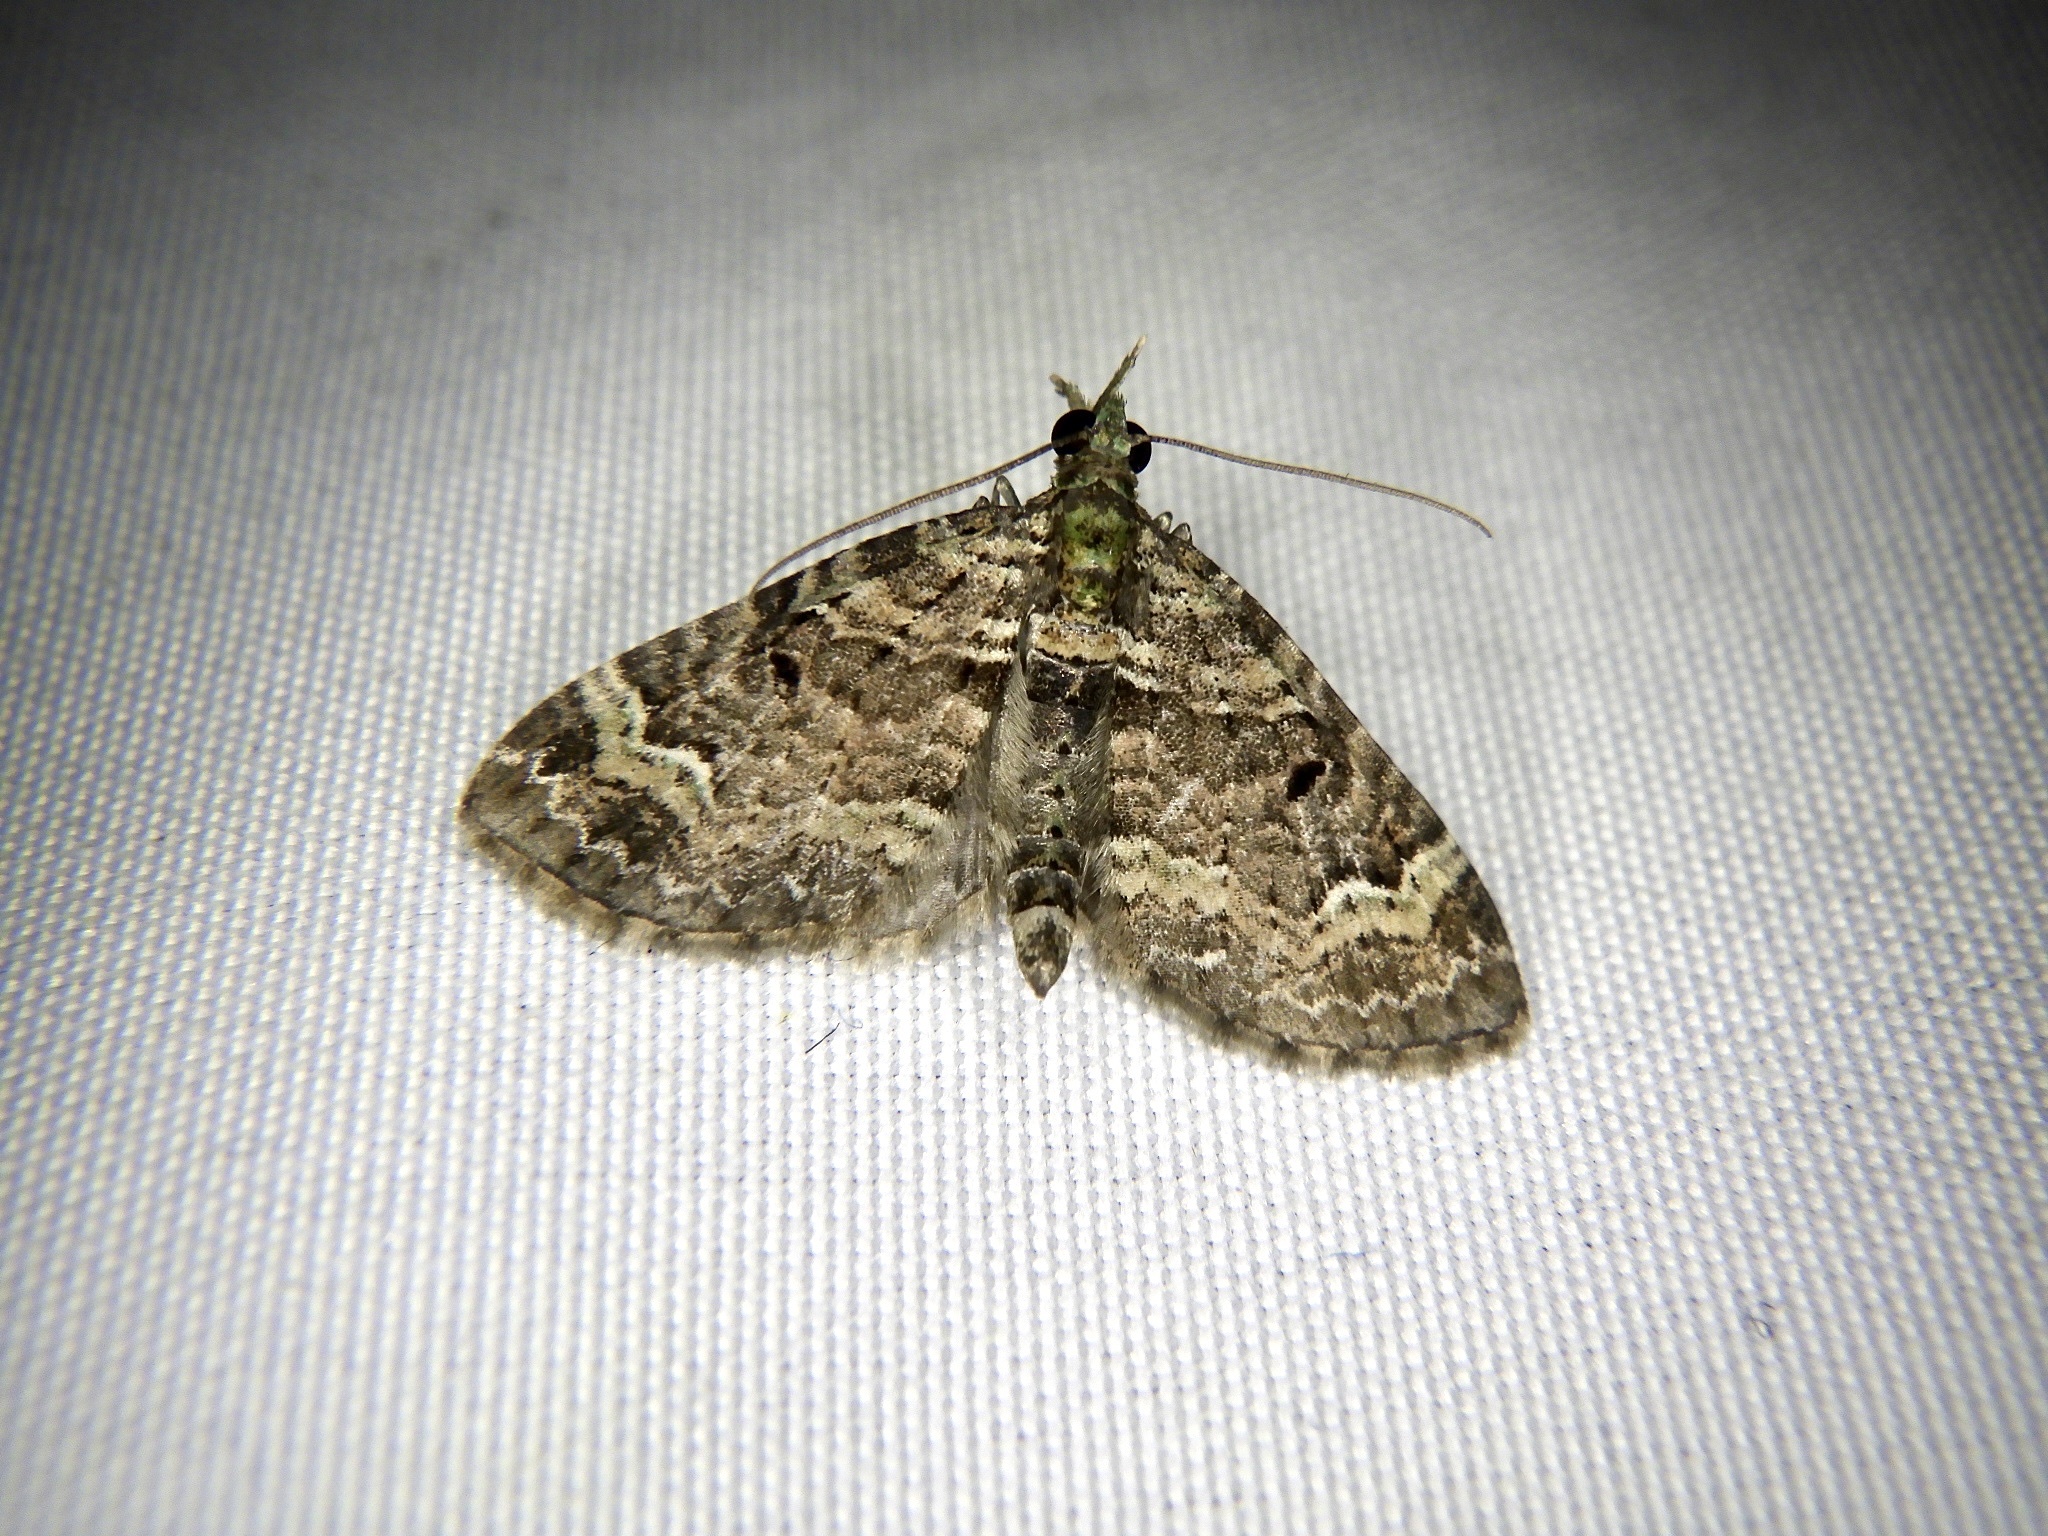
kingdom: Animalia
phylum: Arthropoda
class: Insecta
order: Lepidoptera
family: Geometridae
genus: Chloroclystis
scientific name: Chloroclystis
